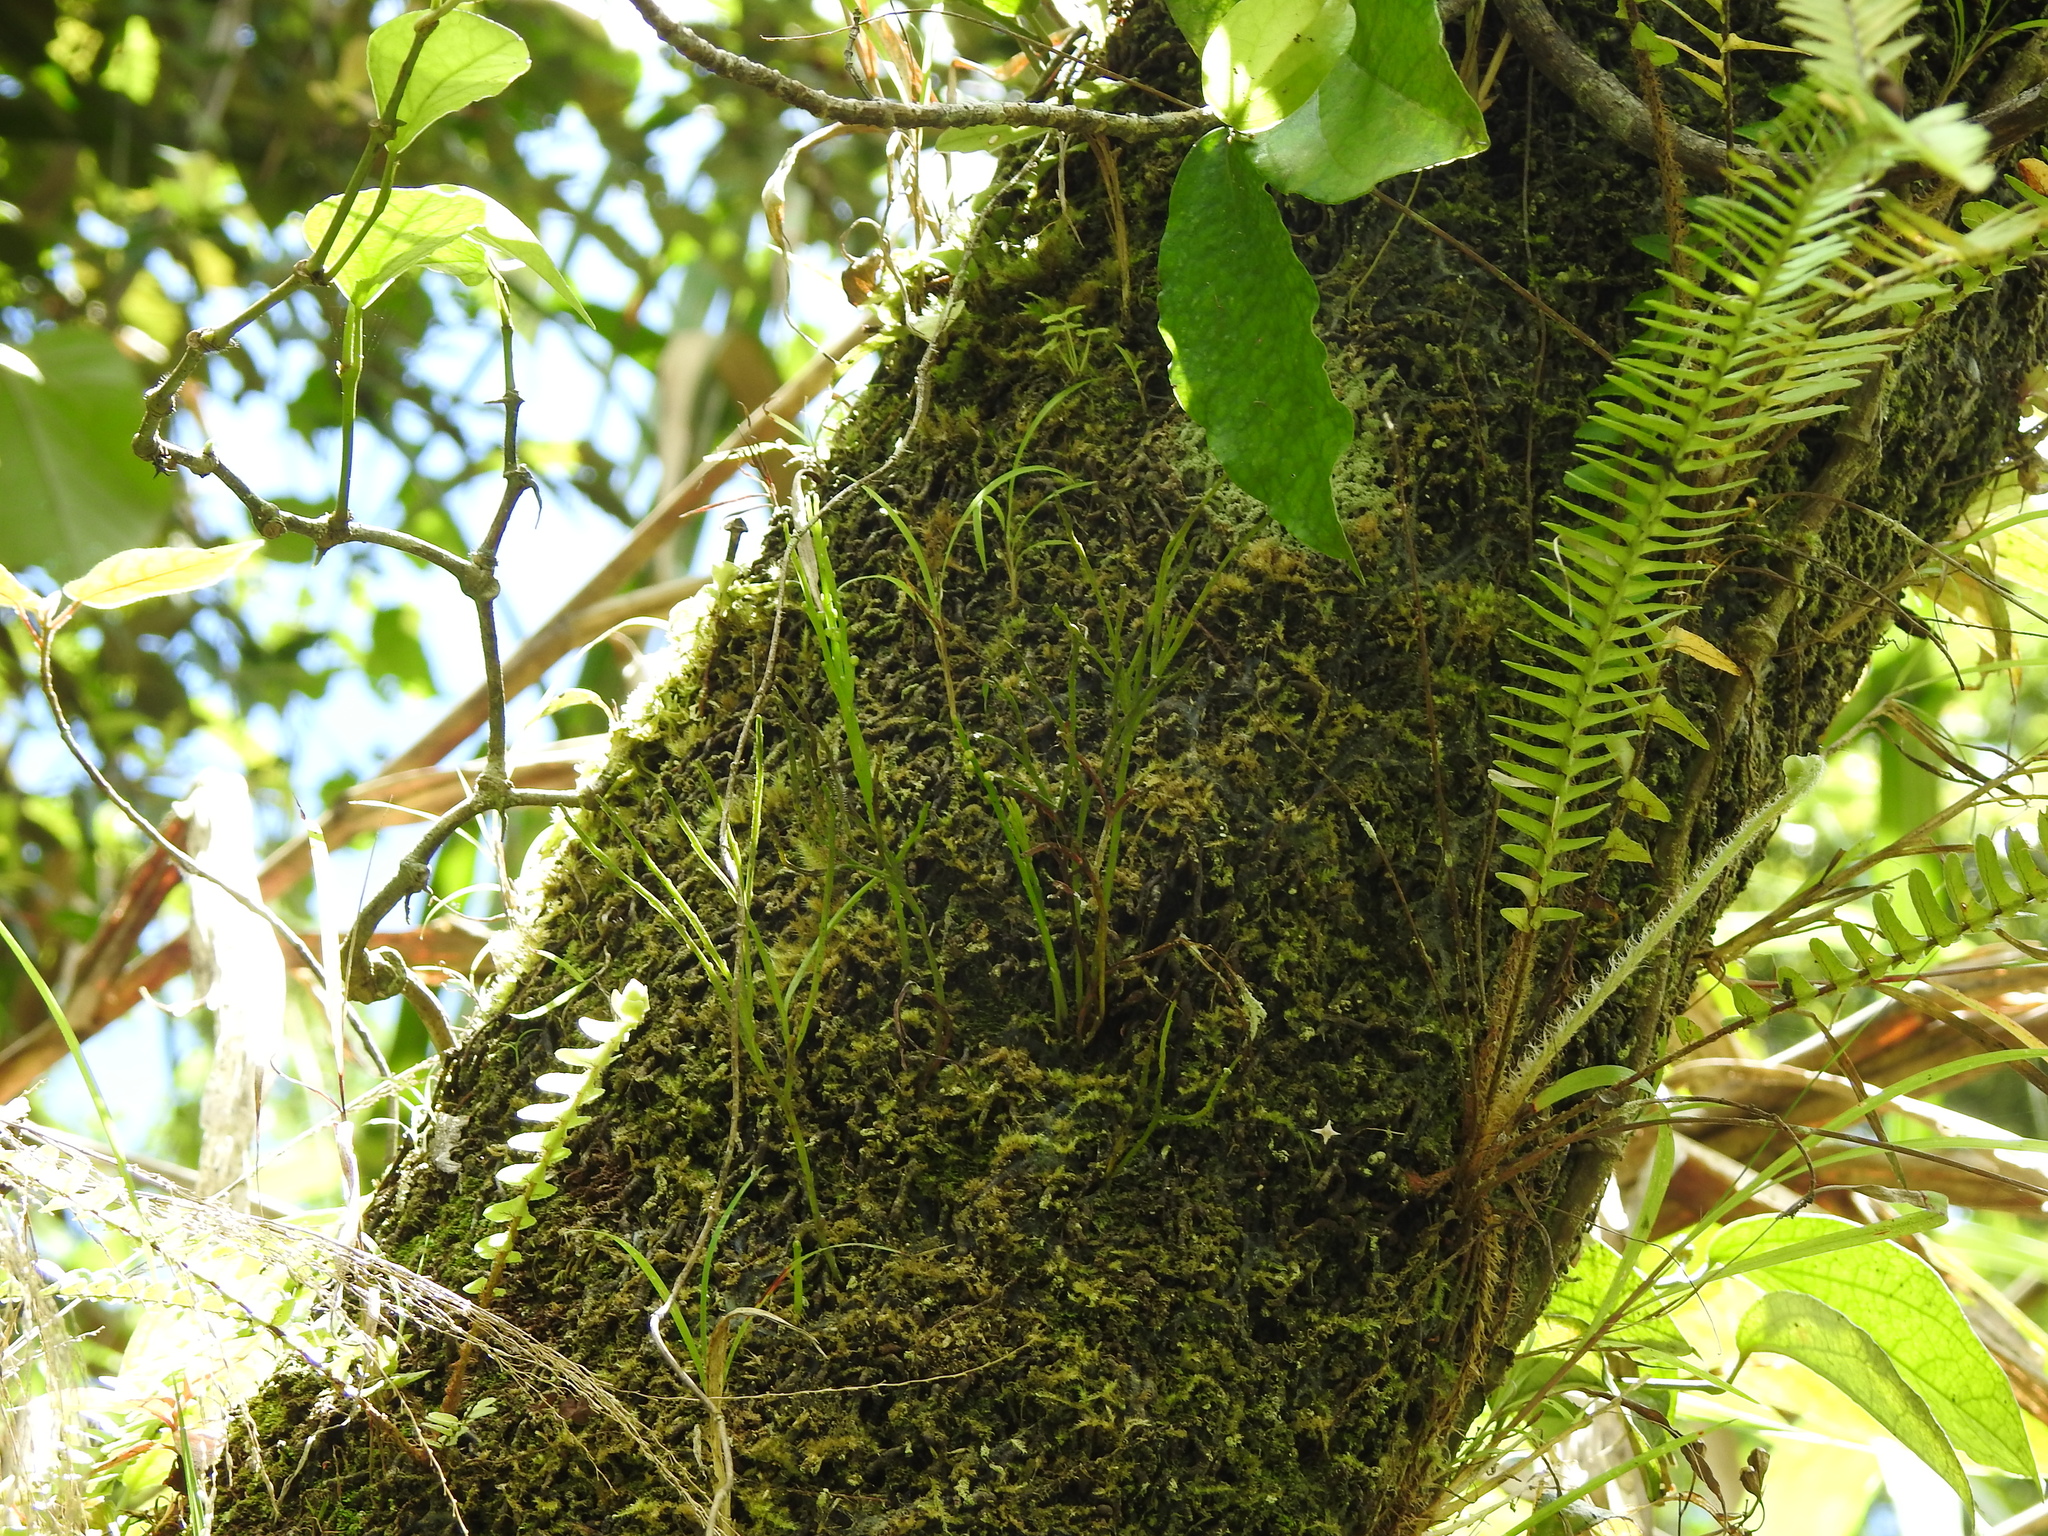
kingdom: Plantae
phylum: Tracheophyta
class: Polypodiopsida
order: Psilotales
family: Psilotaceae
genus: Psilotum
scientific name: Psilotum nudum
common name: Skeleton fork fern
